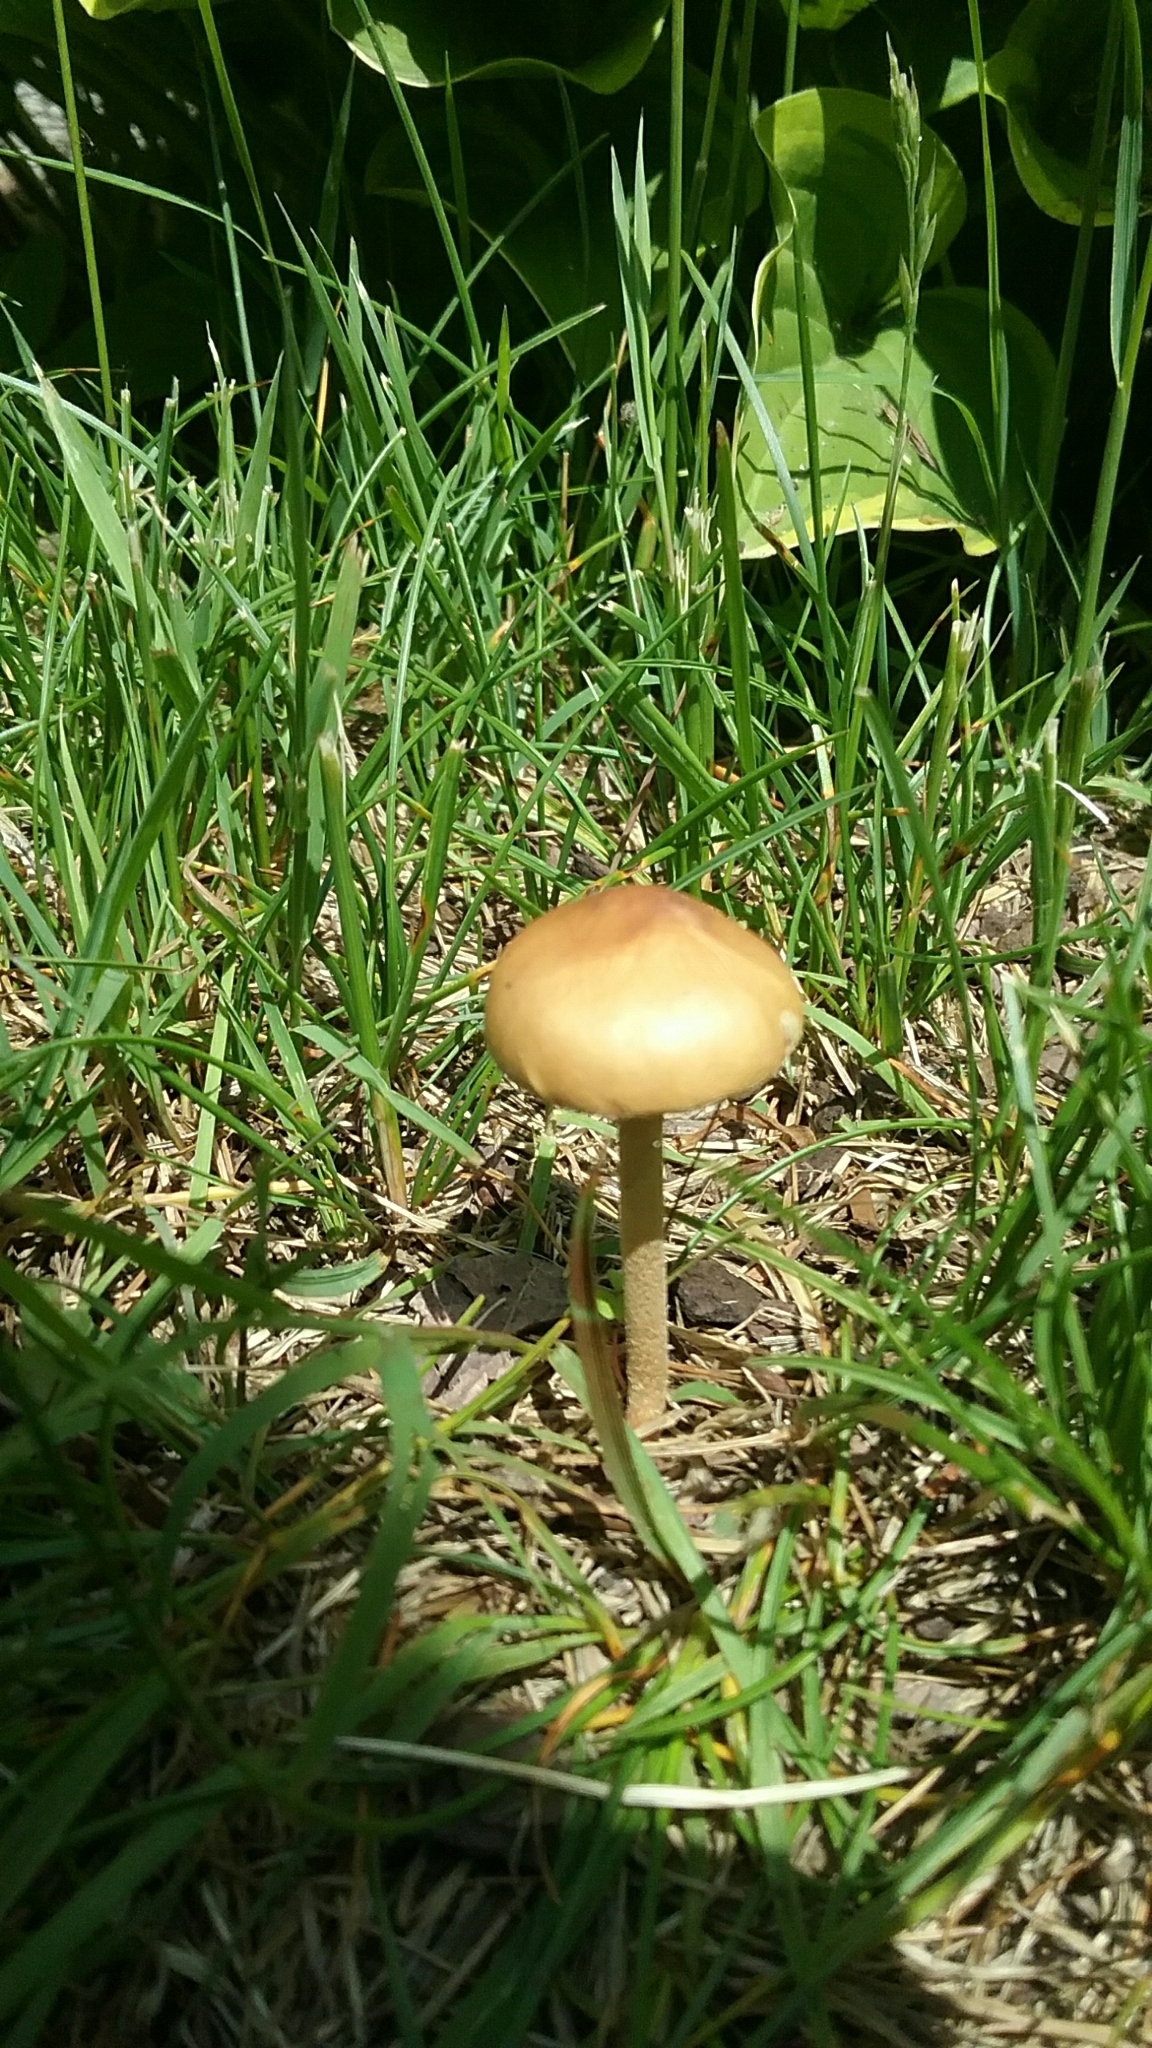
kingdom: Fungi
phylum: Basidiomycota
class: Agaricomycetes
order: Agaricales
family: Strophariaceae
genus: Agrocybe
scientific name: Agrocybe pediades
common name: Common fieldcap
